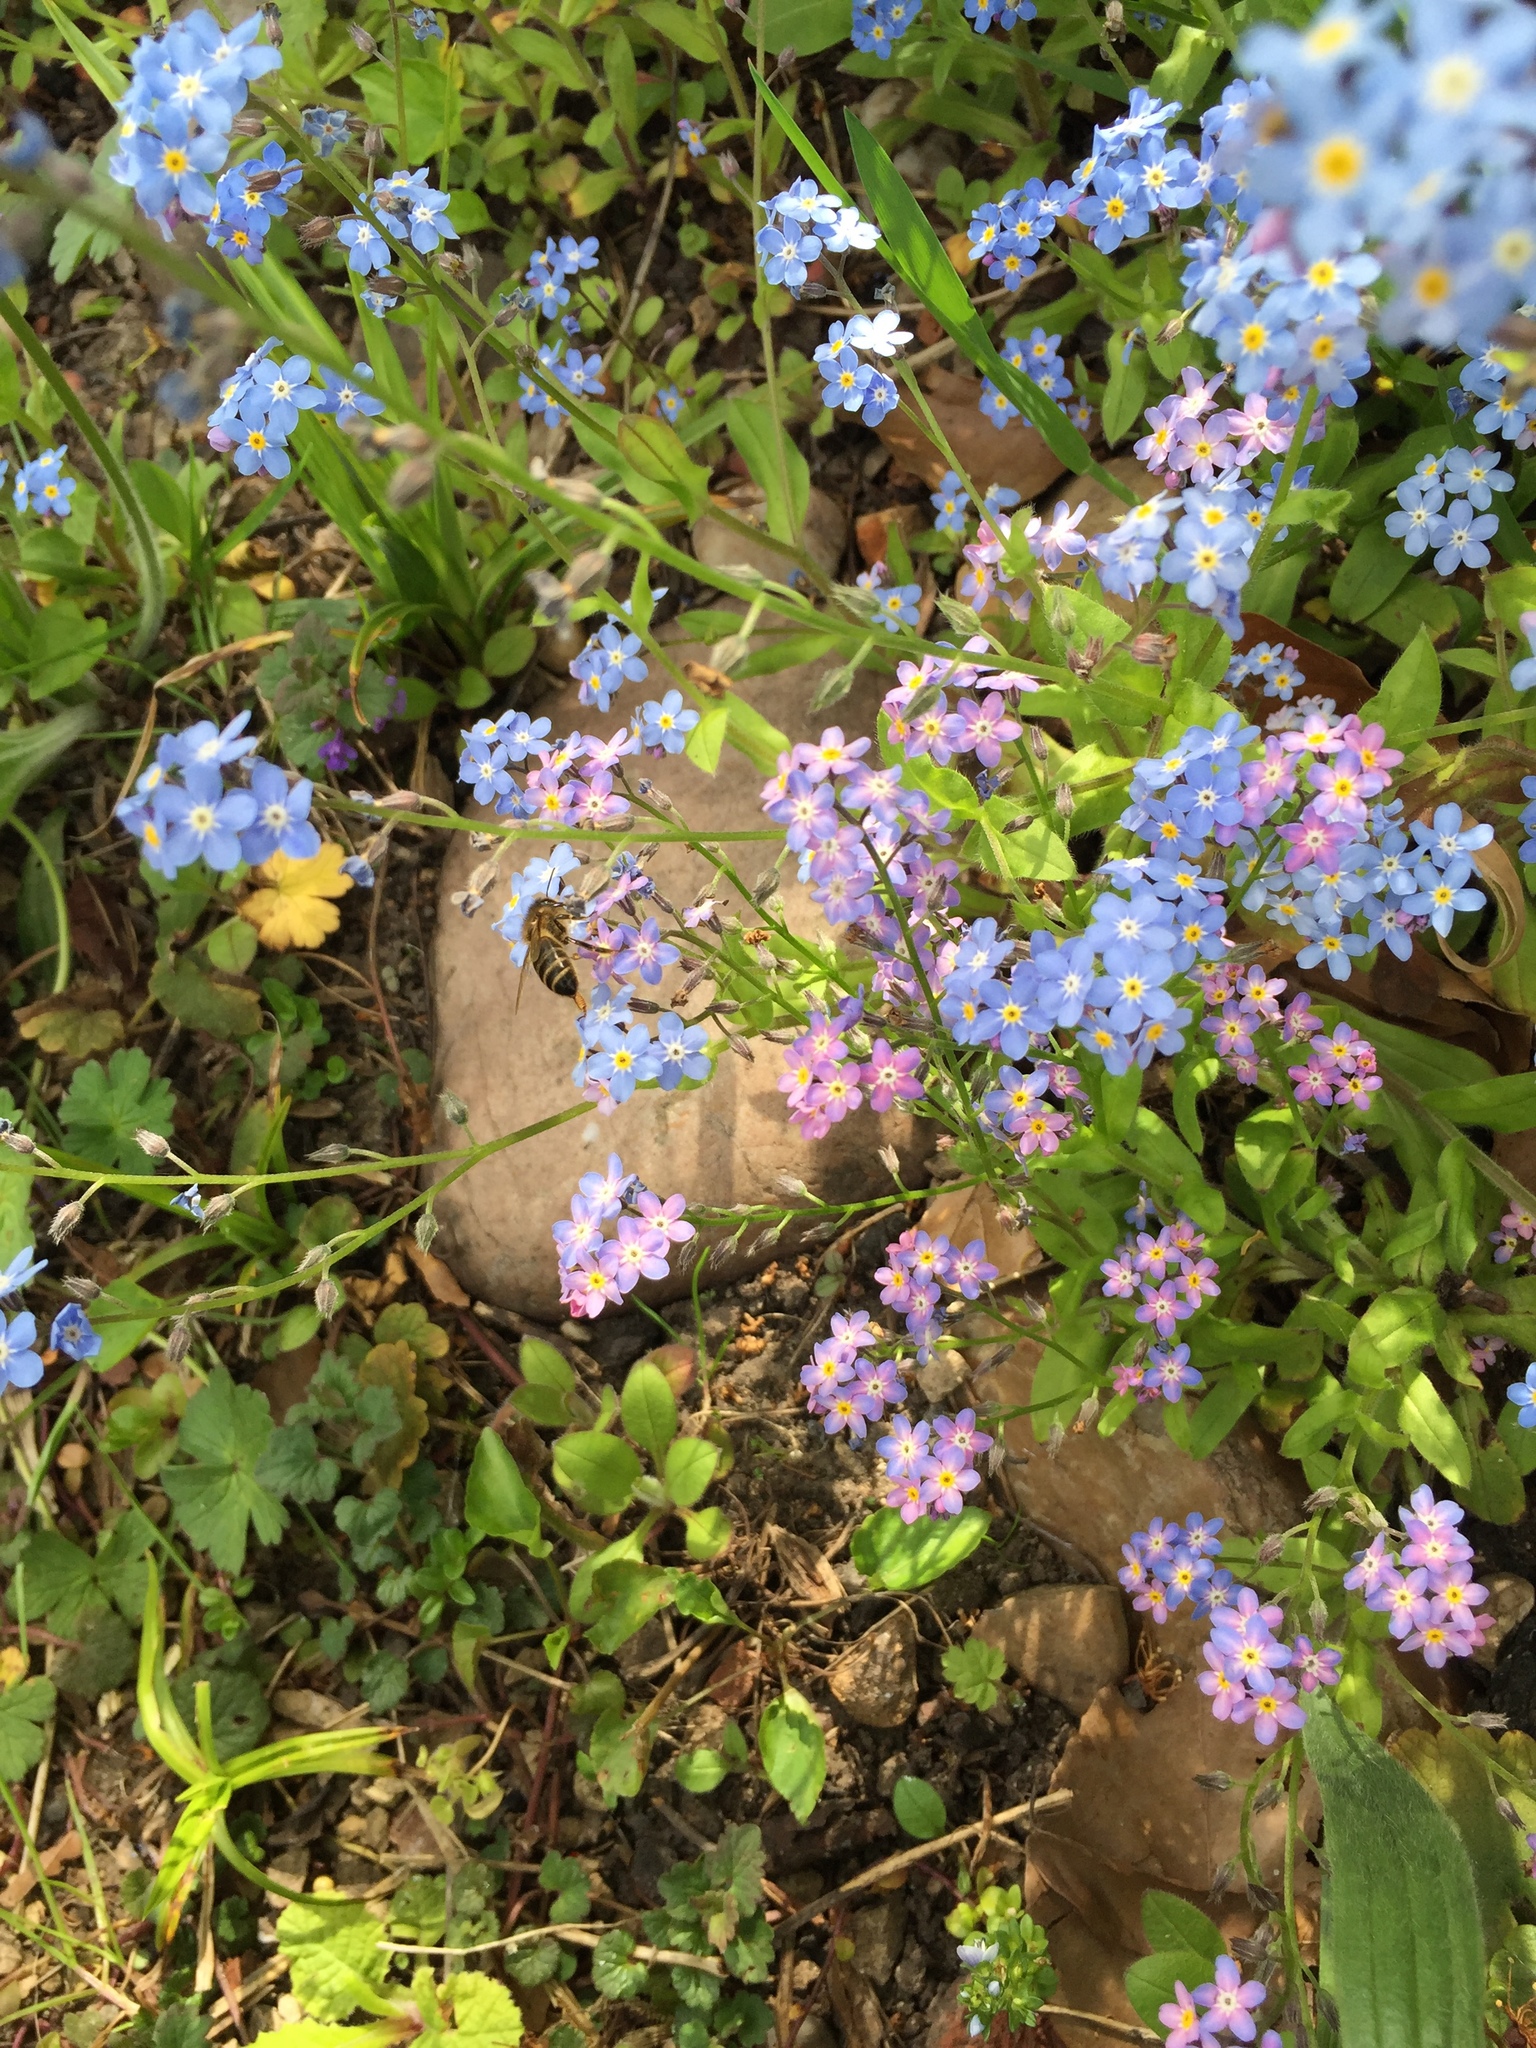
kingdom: Animalia
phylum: Arthropoda
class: Insecta
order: Hymenoptera
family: Apidae
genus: Apis
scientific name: Apis mellifera
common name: Honey bee
